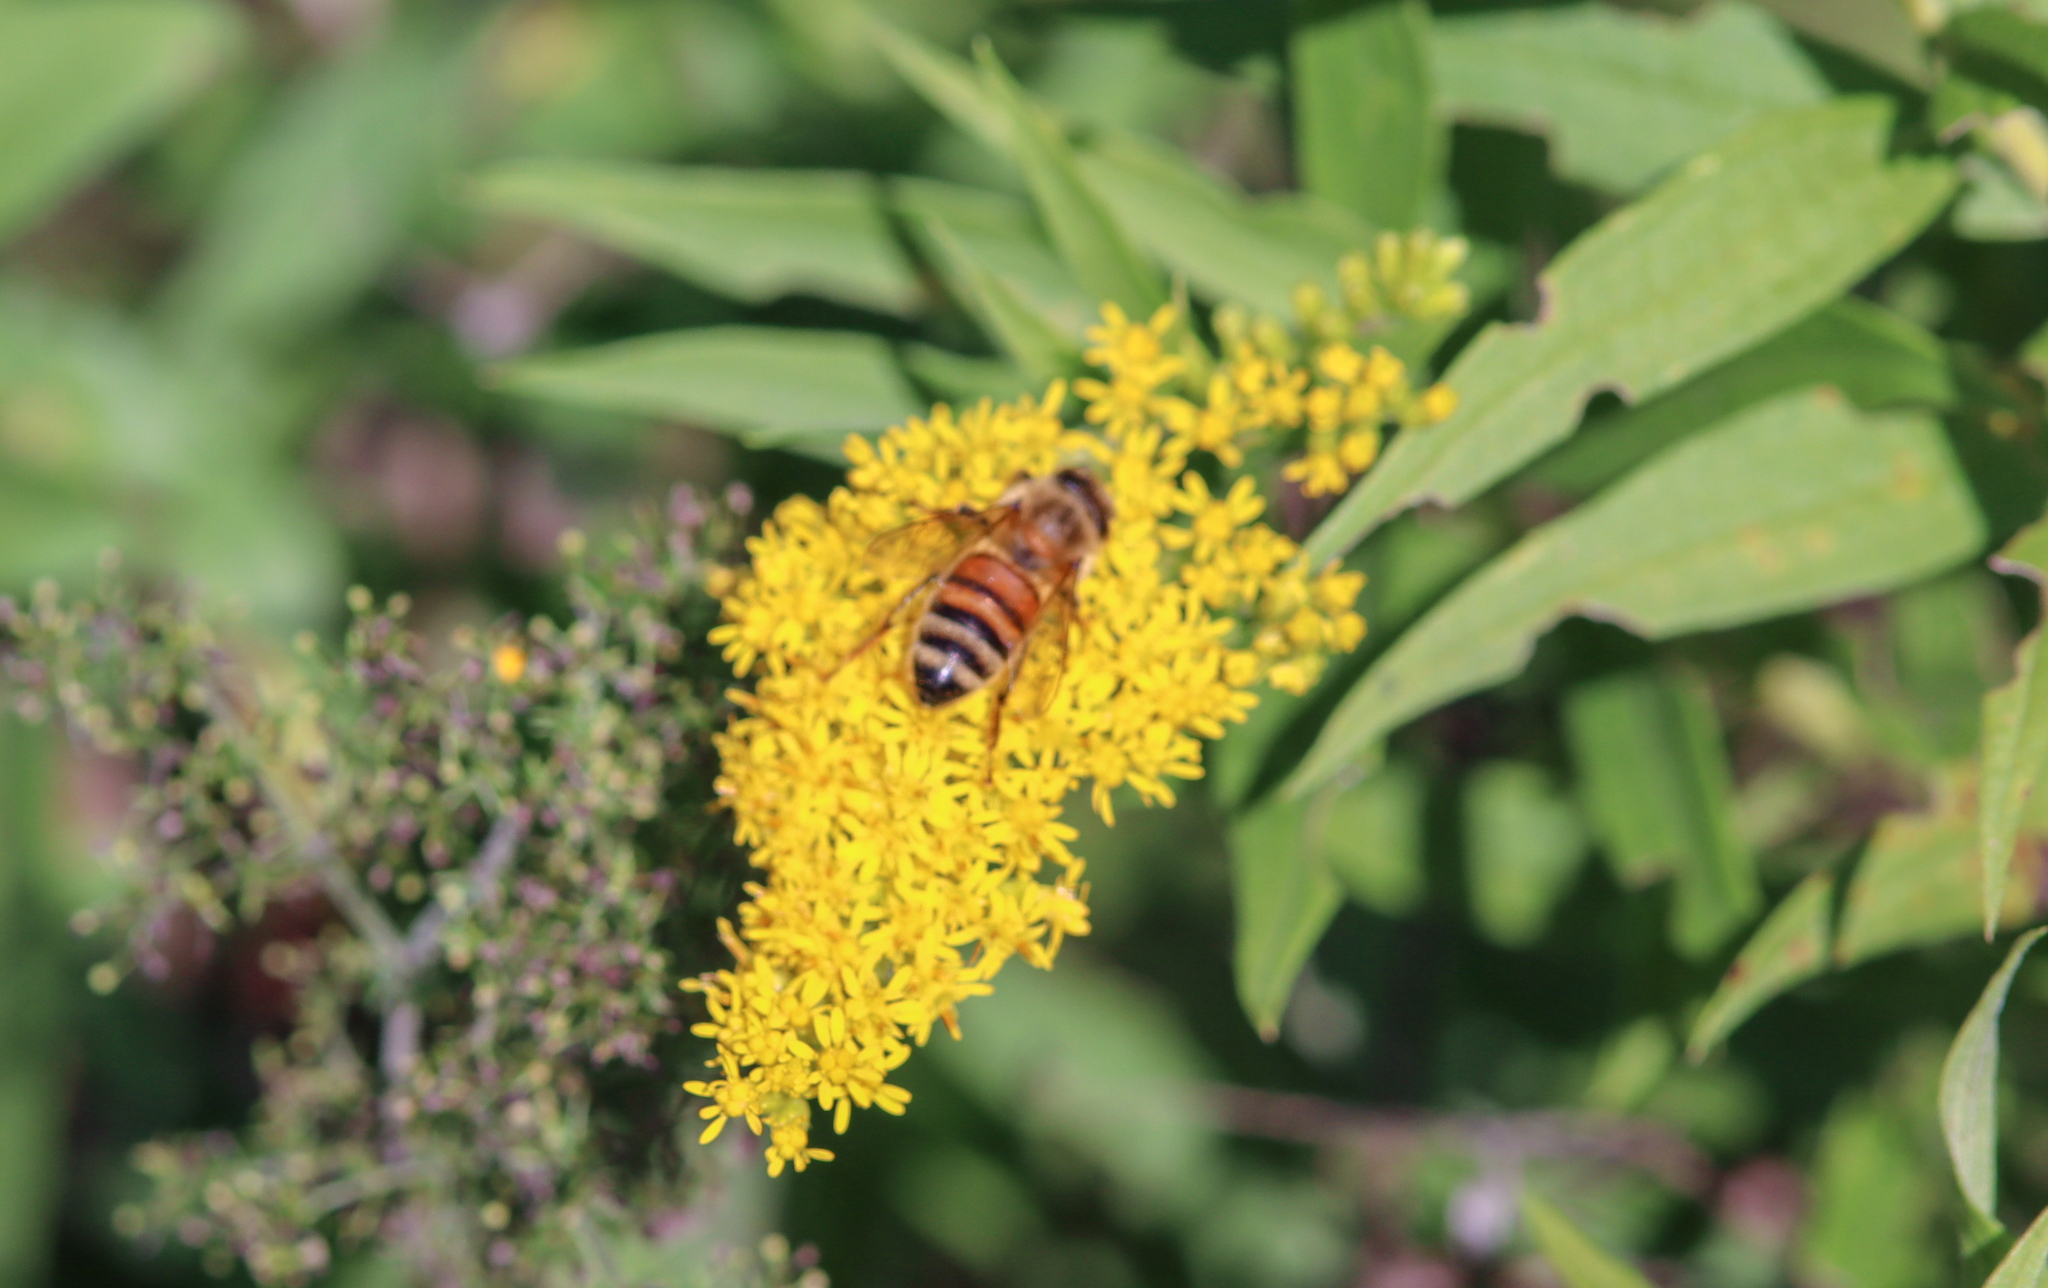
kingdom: Animalia
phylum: Arthropoda
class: Insecta
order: Hymenoptera
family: Apidae
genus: Apis
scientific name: Apis mellifera
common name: Honey bee
